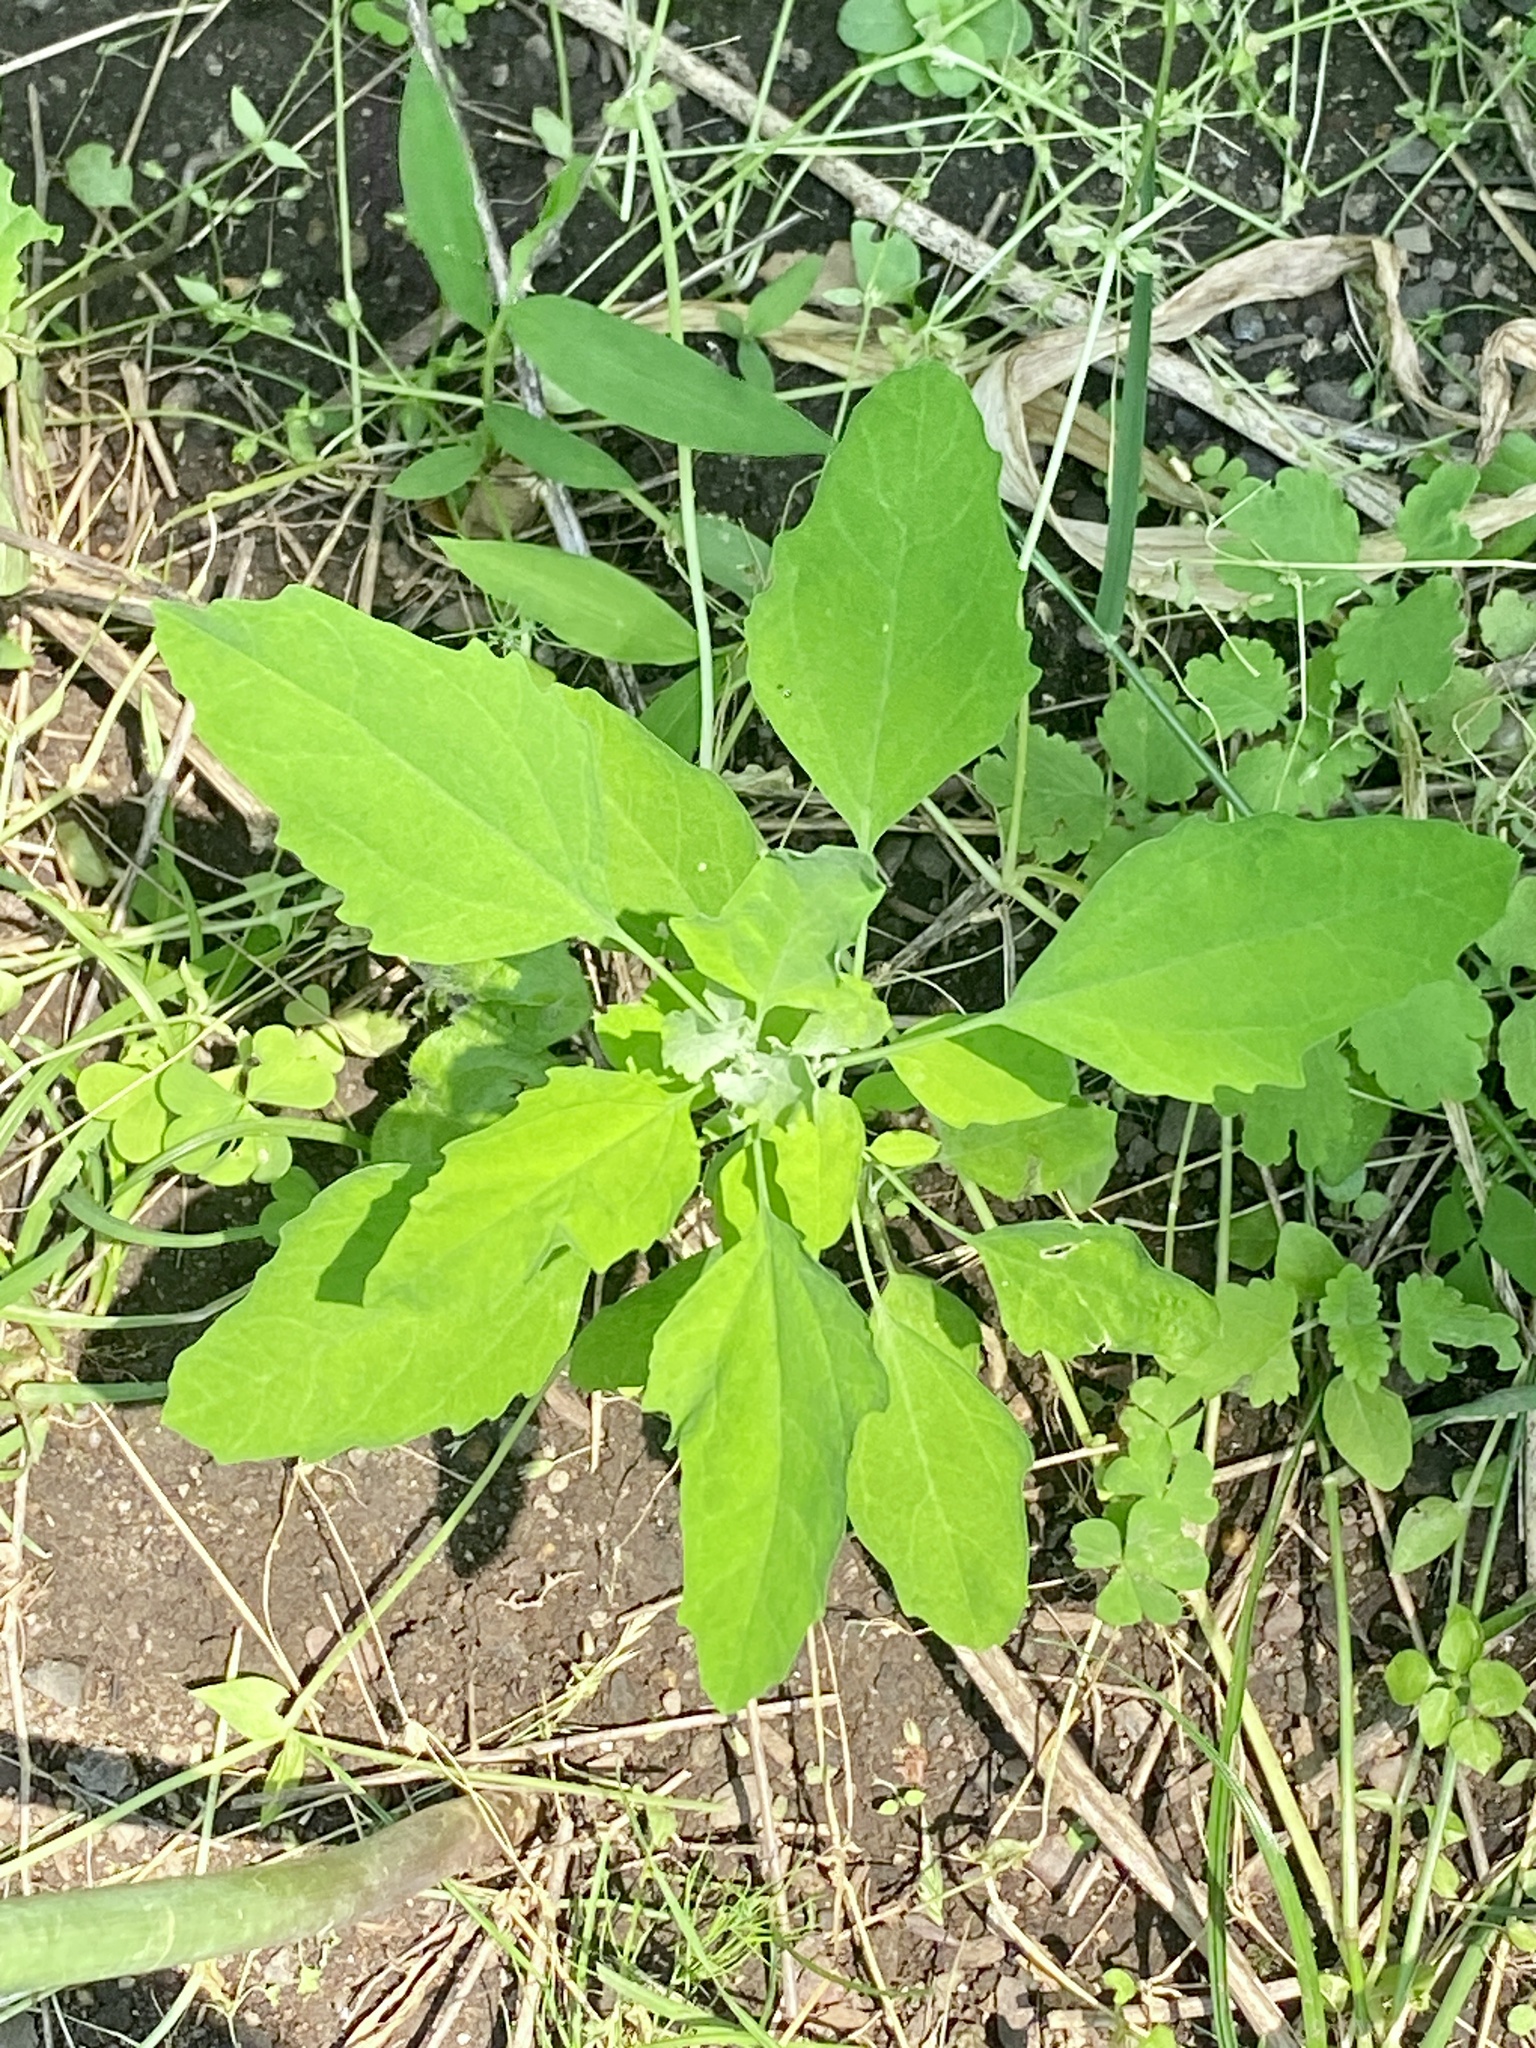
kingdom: Plantae
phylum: Tracheophyta
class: Magnoliopsida
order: Caryophyllales
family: Amaranthaceae
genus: Chenopodium
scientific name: Chenopodium album
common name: Fat-hen
